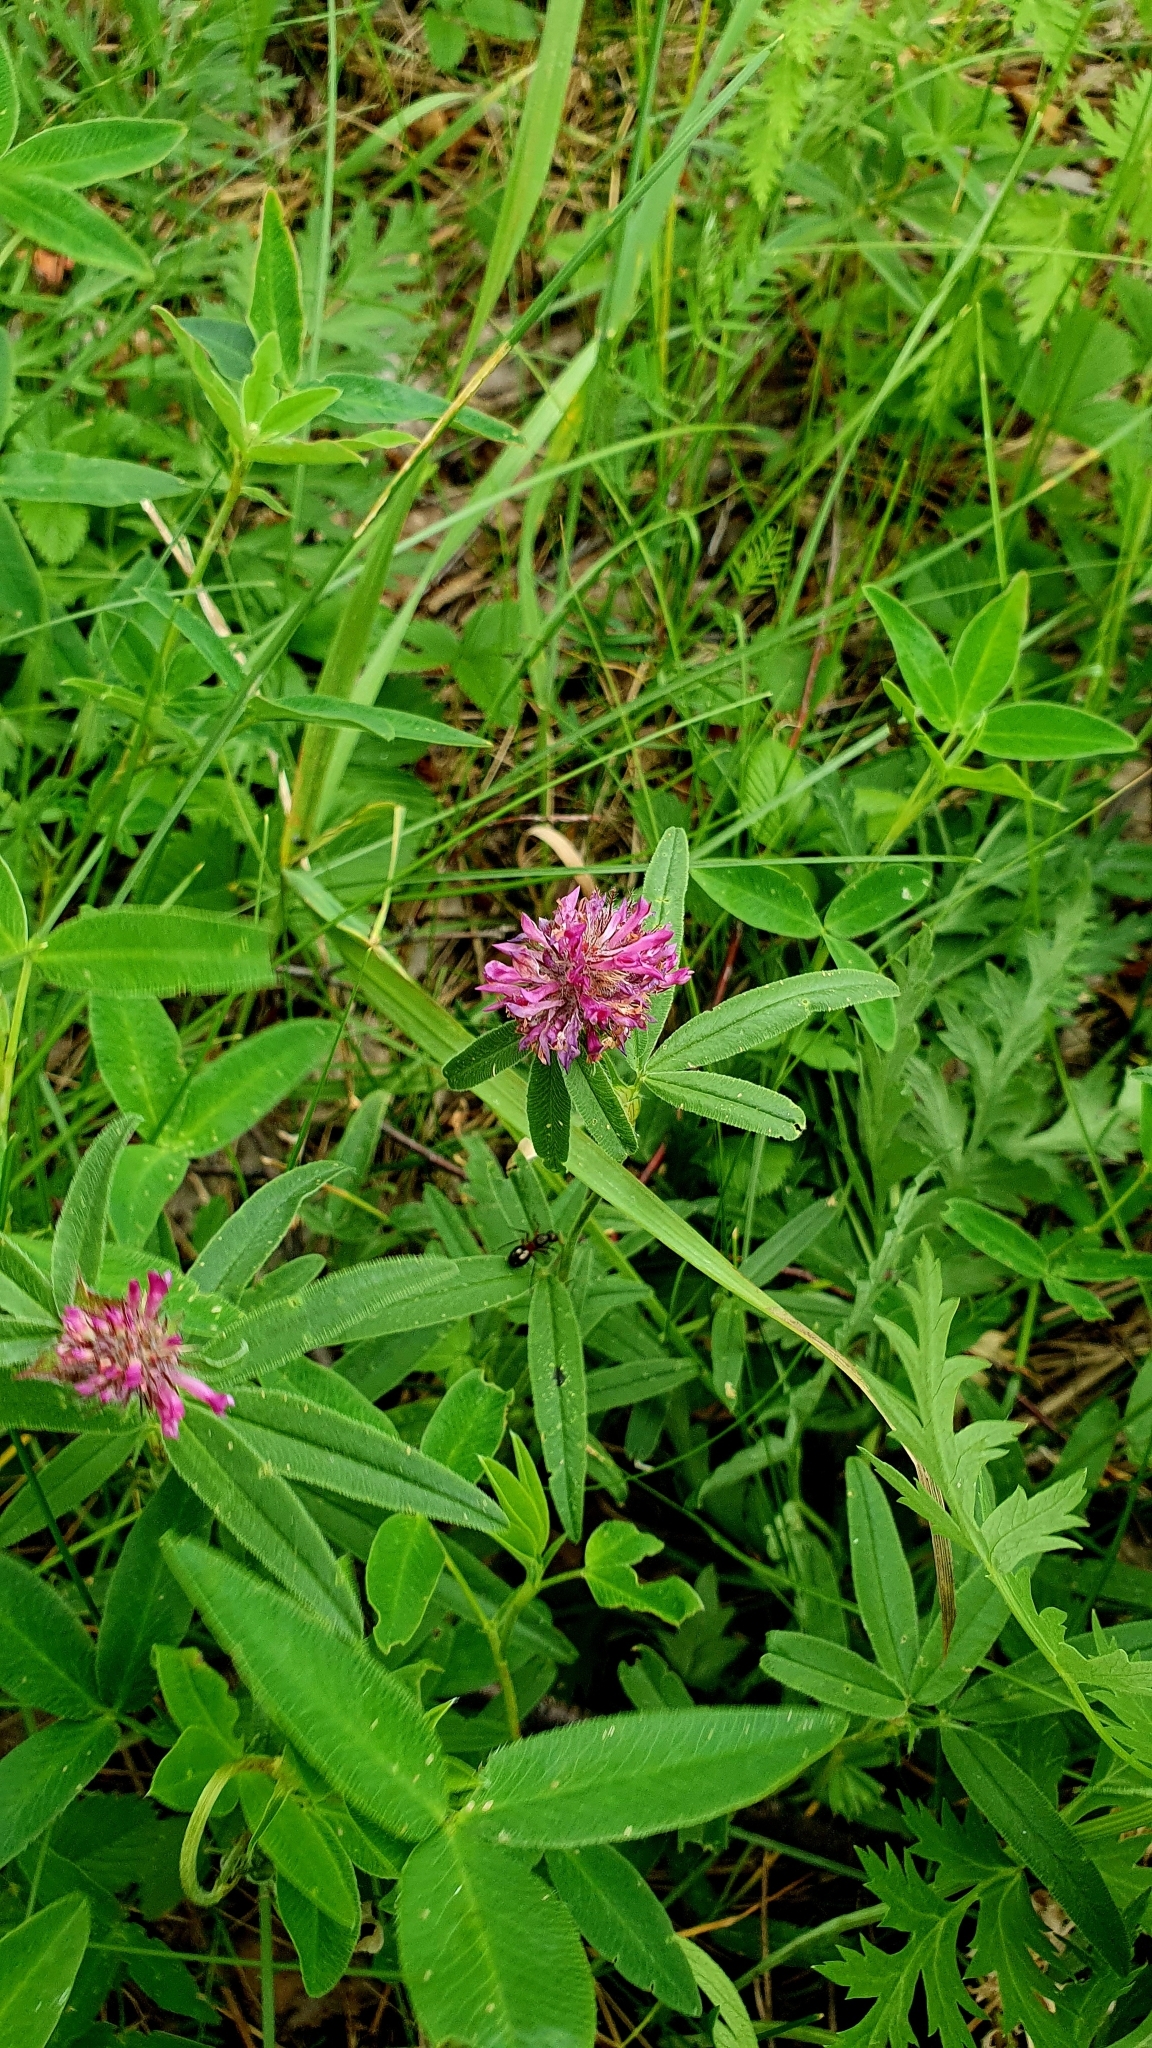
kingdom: Plantae
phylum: Tracheophyta
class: Magnoliopsida
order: Fabales
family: Fabaceae
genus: Trifolium
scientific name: Trifolium alpestre
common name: Owl-head clover
